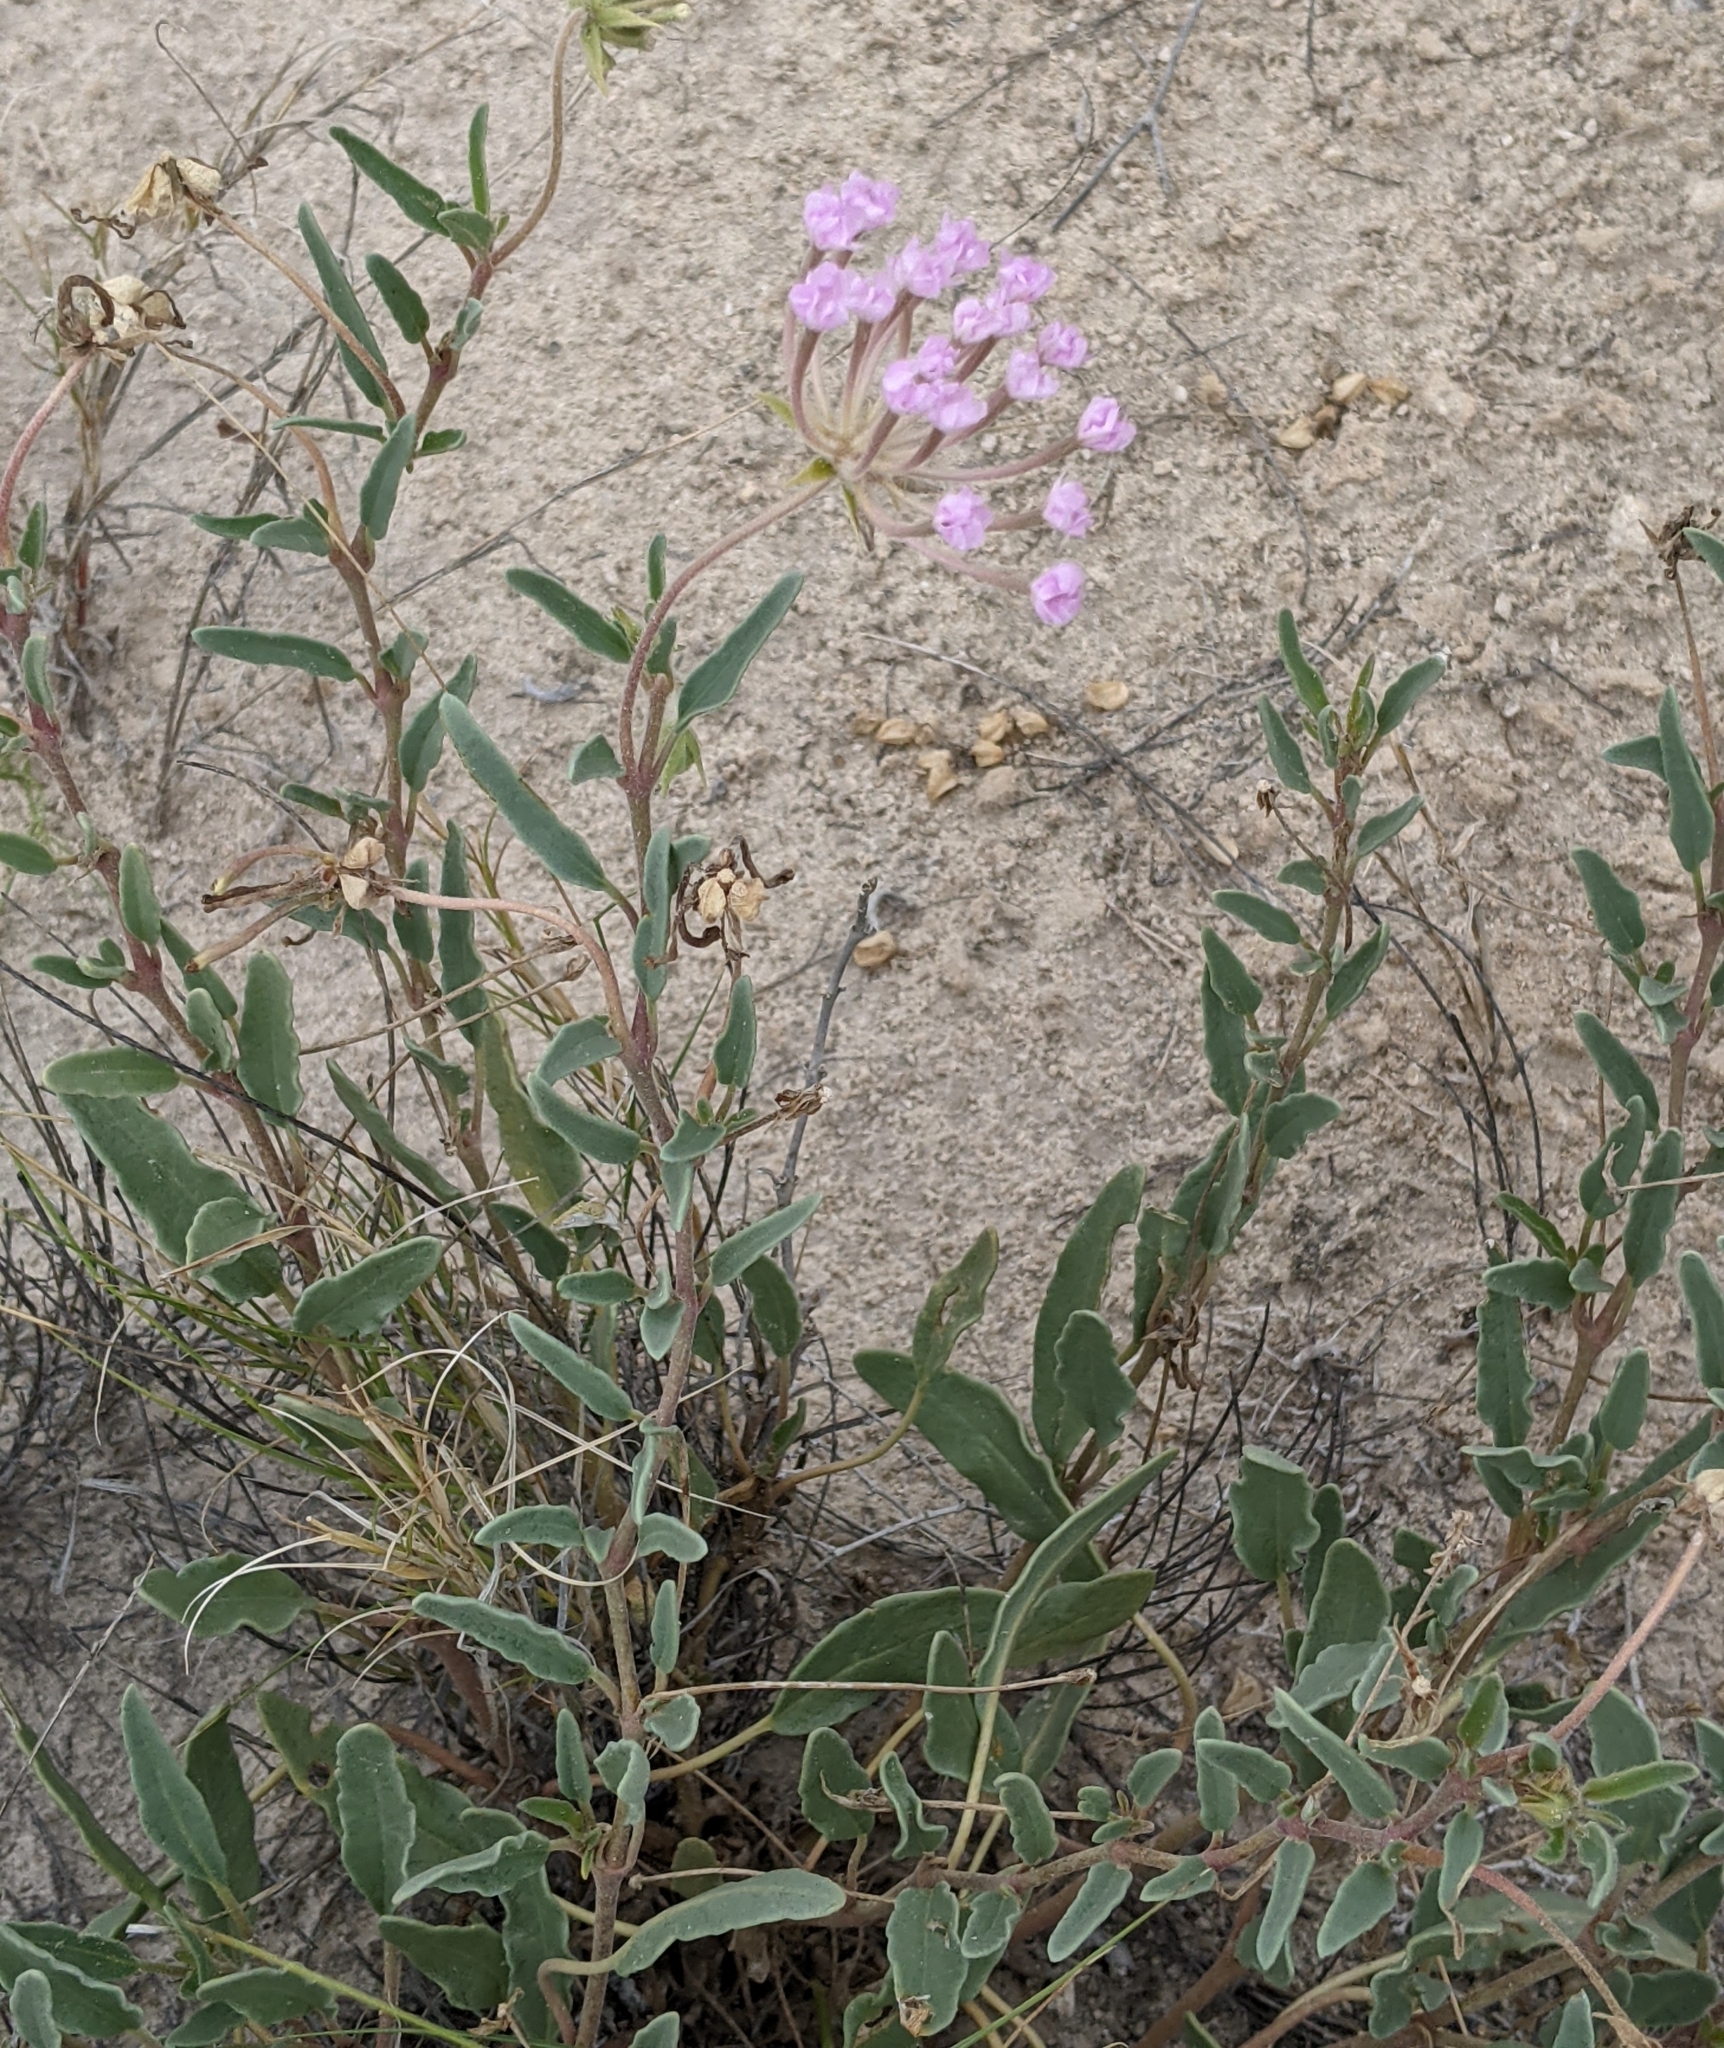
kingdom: Plantae
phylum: Tracheophyta
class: Magnoliopsida
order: Caryophyllales
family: Nyctaginaceae
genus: Abronia
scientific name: Abronia angustifolia
